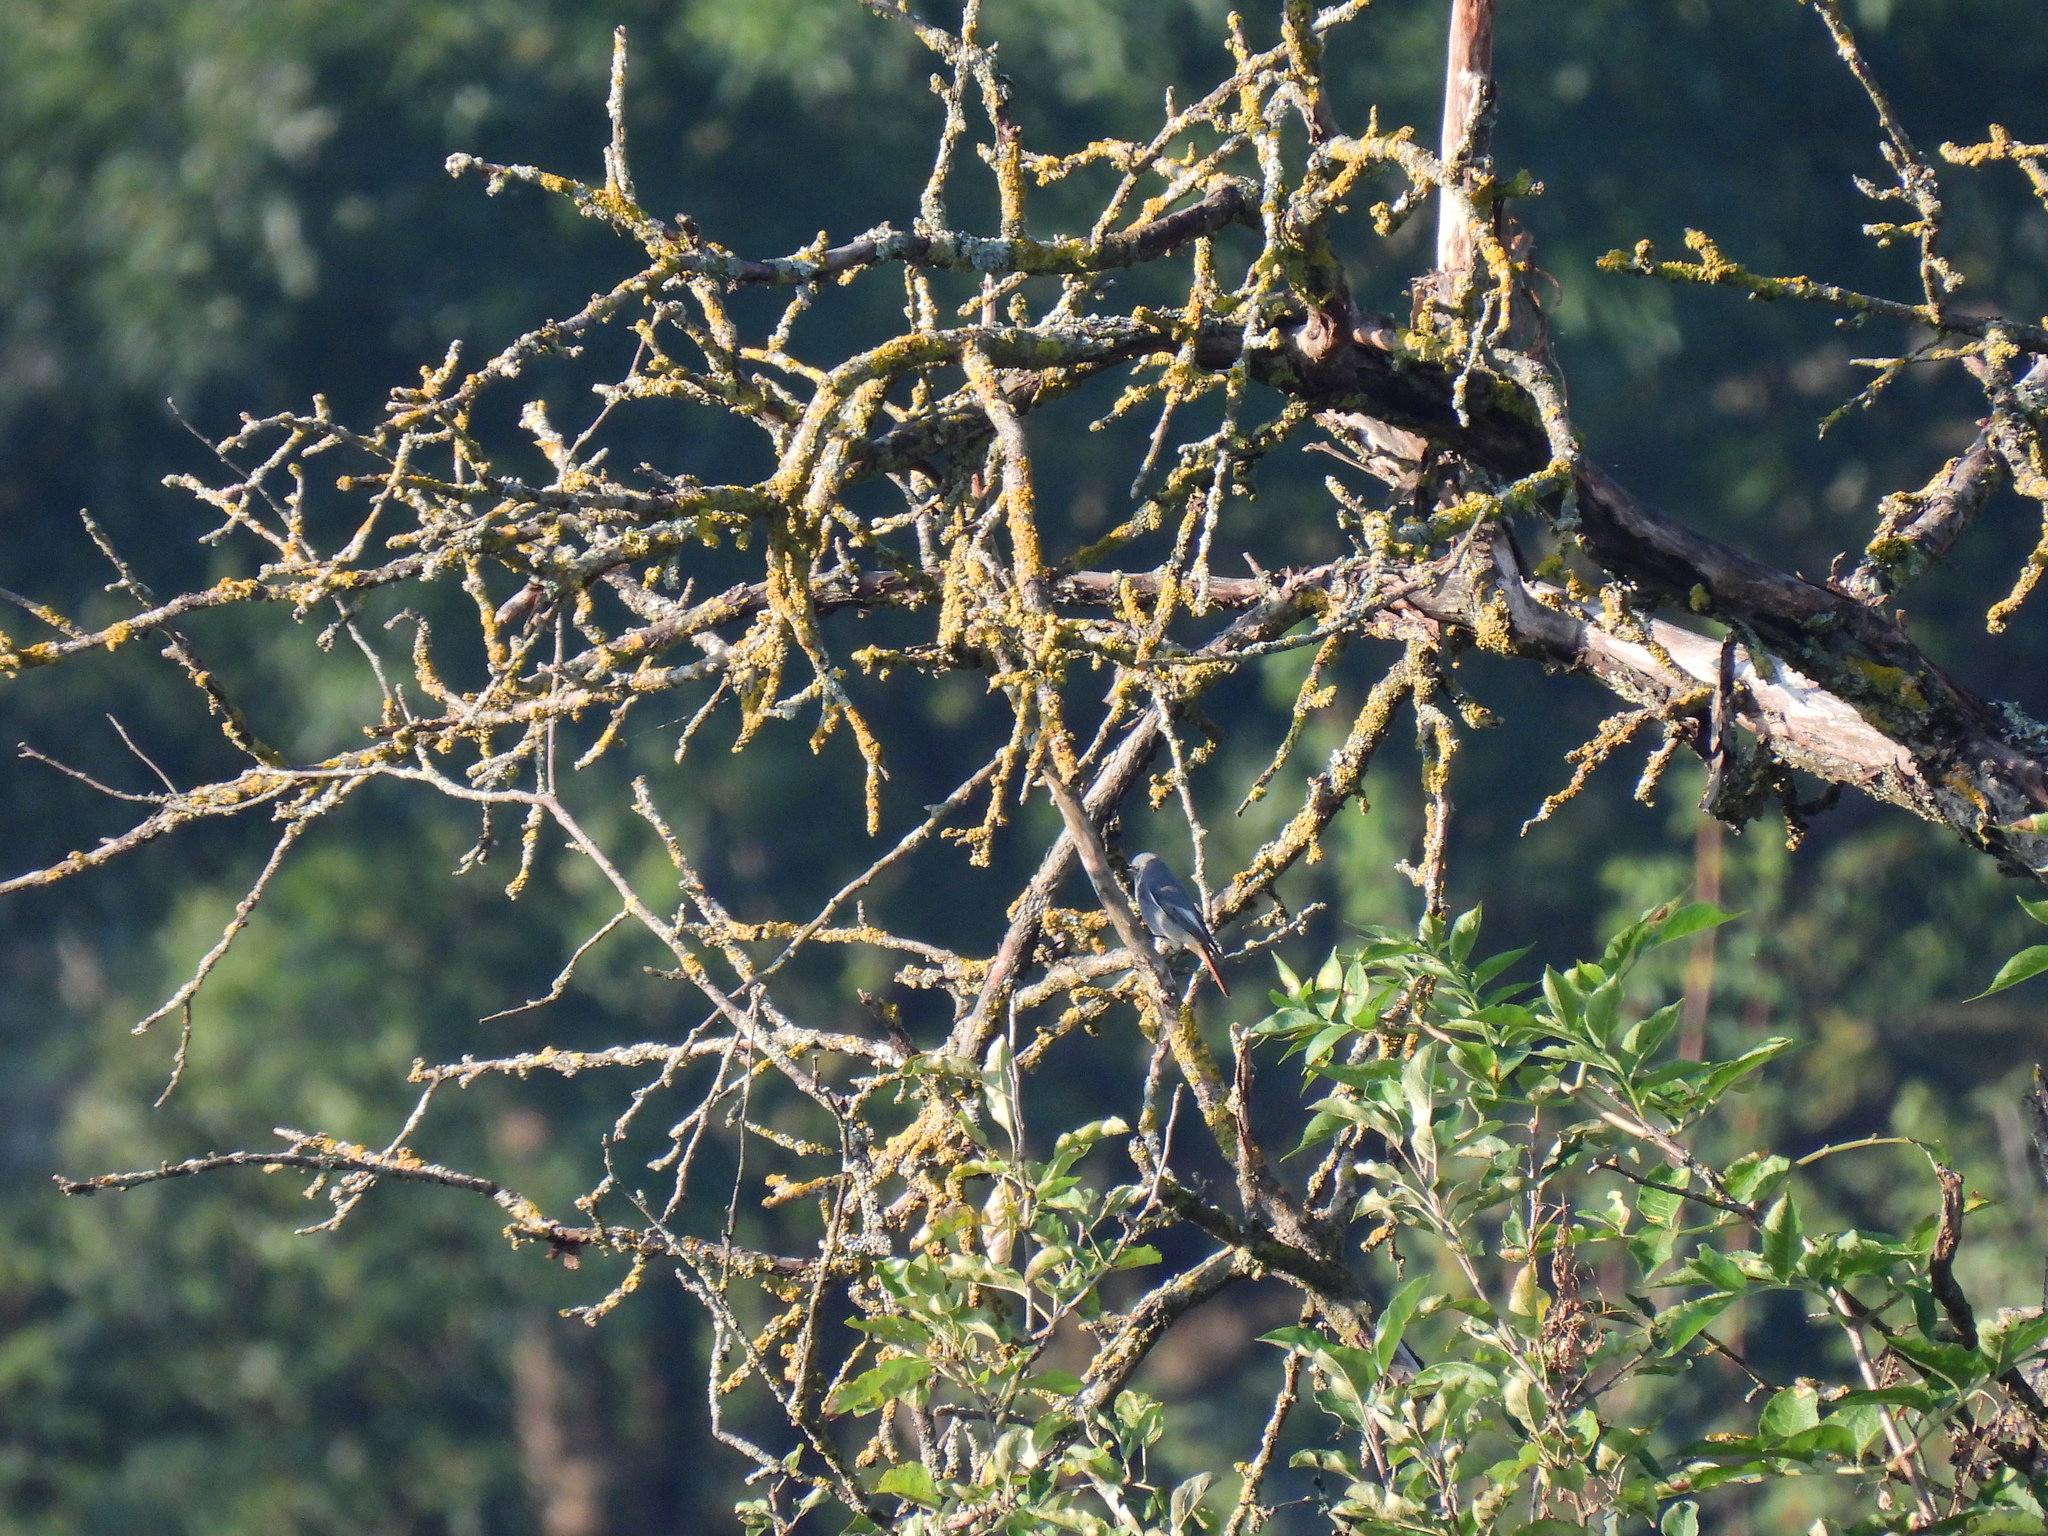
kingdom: Animalia
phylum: Chordata
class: Aves
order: Passeriformes
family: Muscicapidae
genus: Phoenicurus
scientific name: Phoenicurus ochruros
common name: Black redstart
